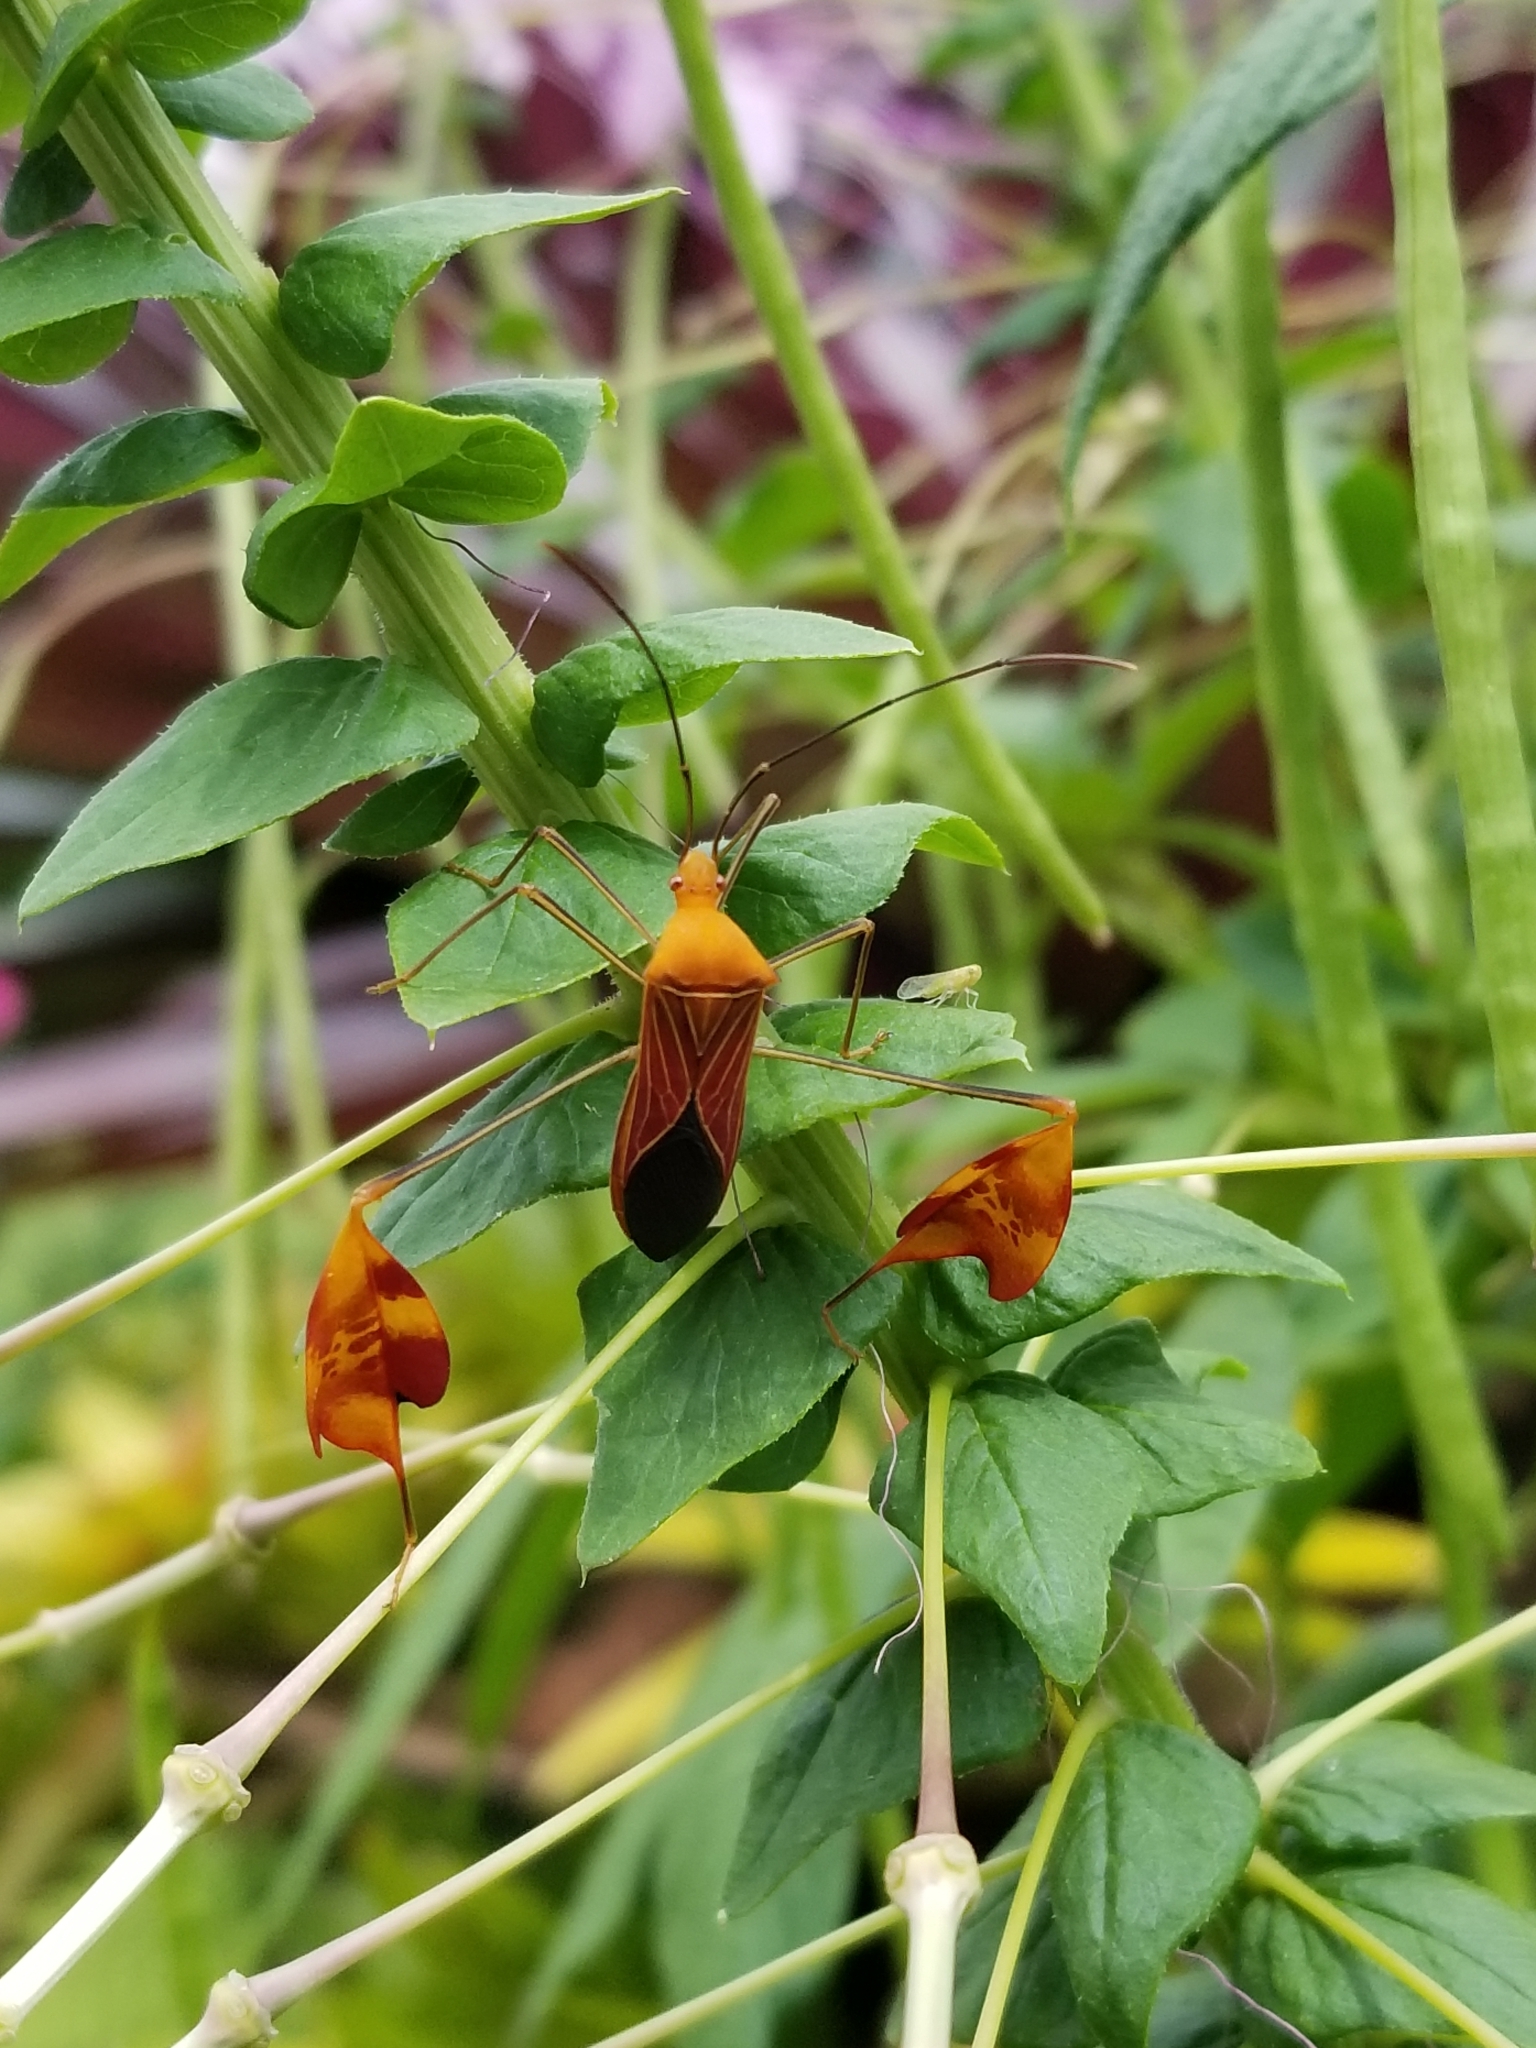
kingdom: Animalia
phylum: Arthropoda
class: Insecta
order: Hemiptera
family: Coreidae
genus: Anisoscelis
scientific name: Anisoscelis podalicus
